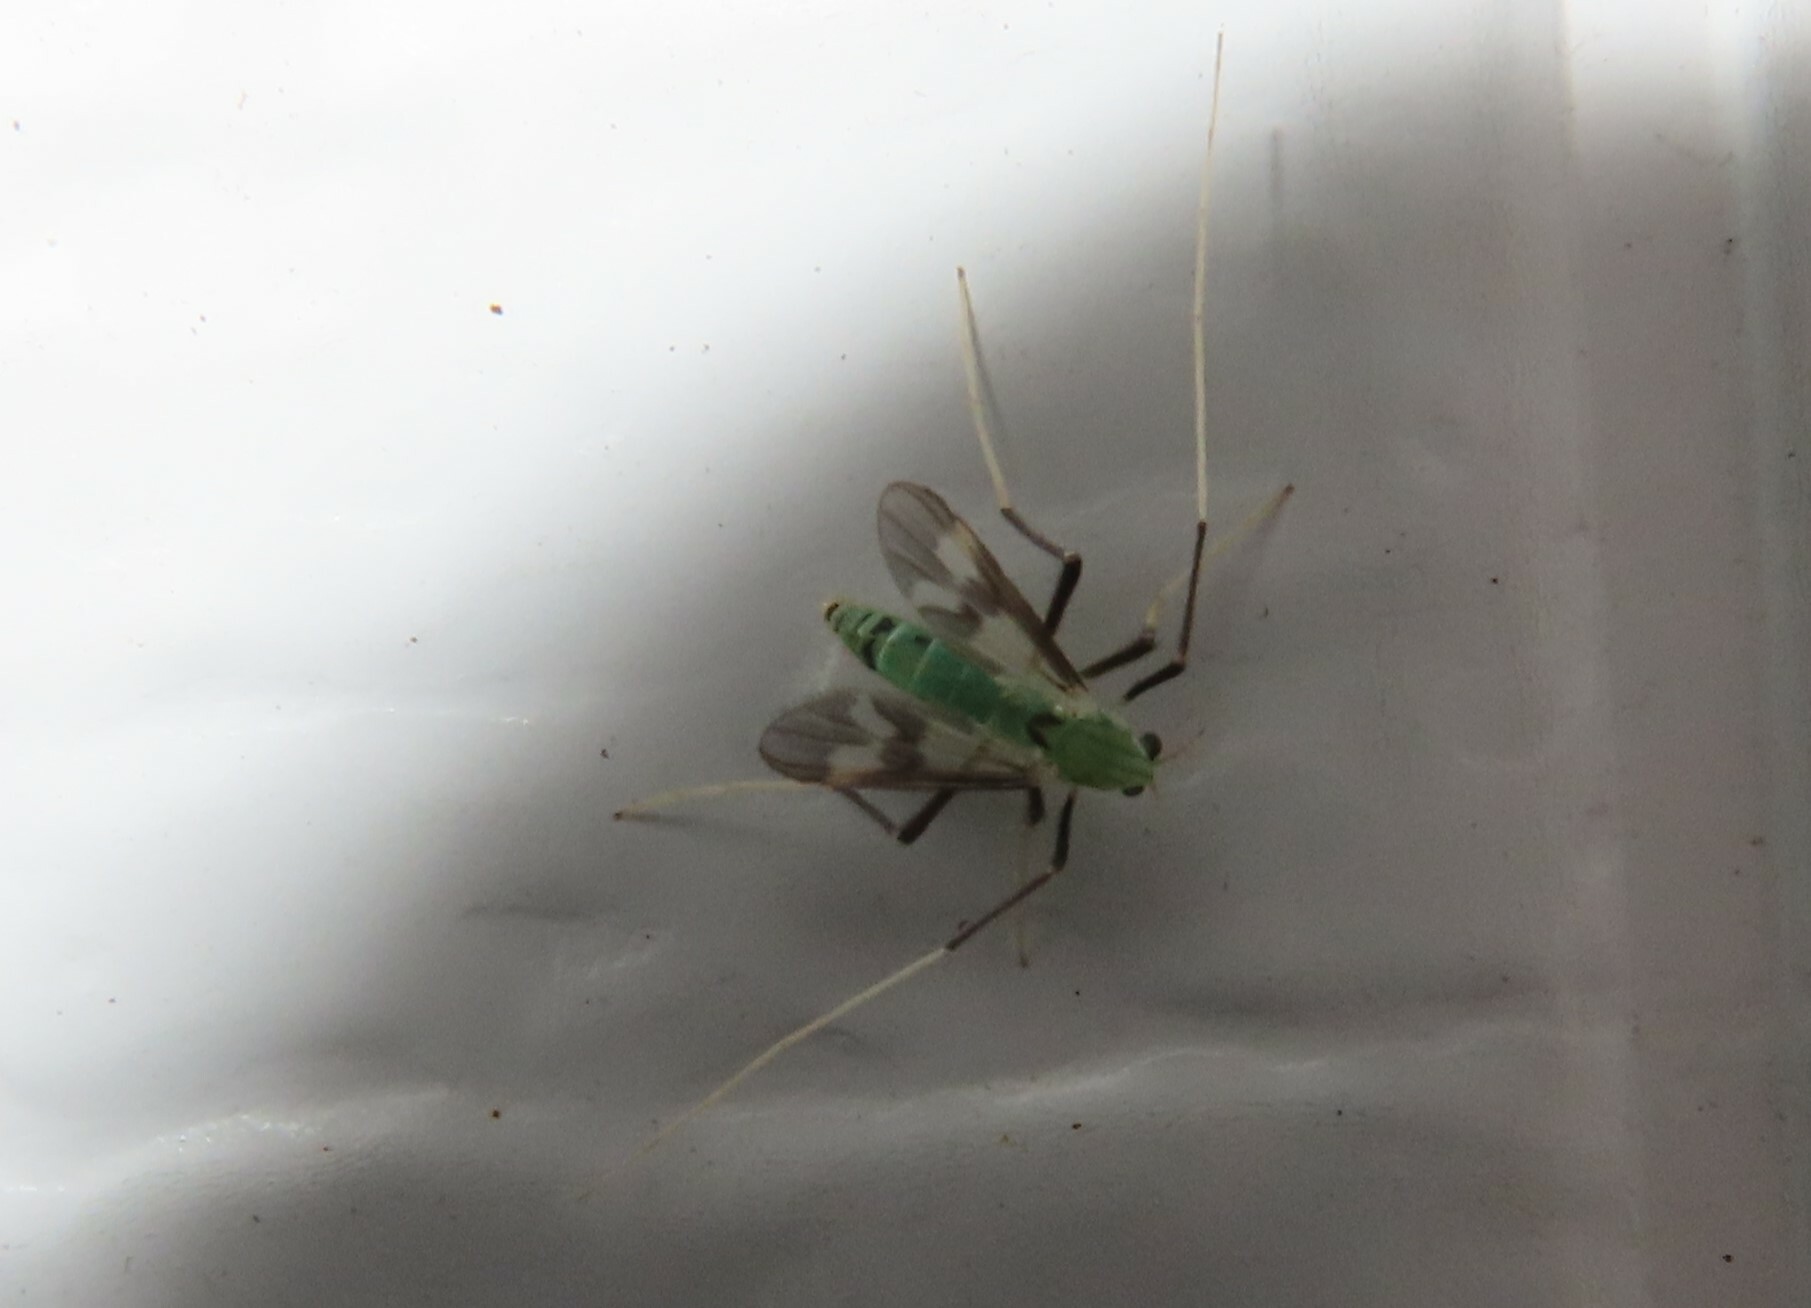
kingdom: Animalia
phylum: Arthropoda
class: Insecta
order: Diptera
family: Chironomidae
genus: Stenochironomus
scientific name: Stenochironomus hilaris
